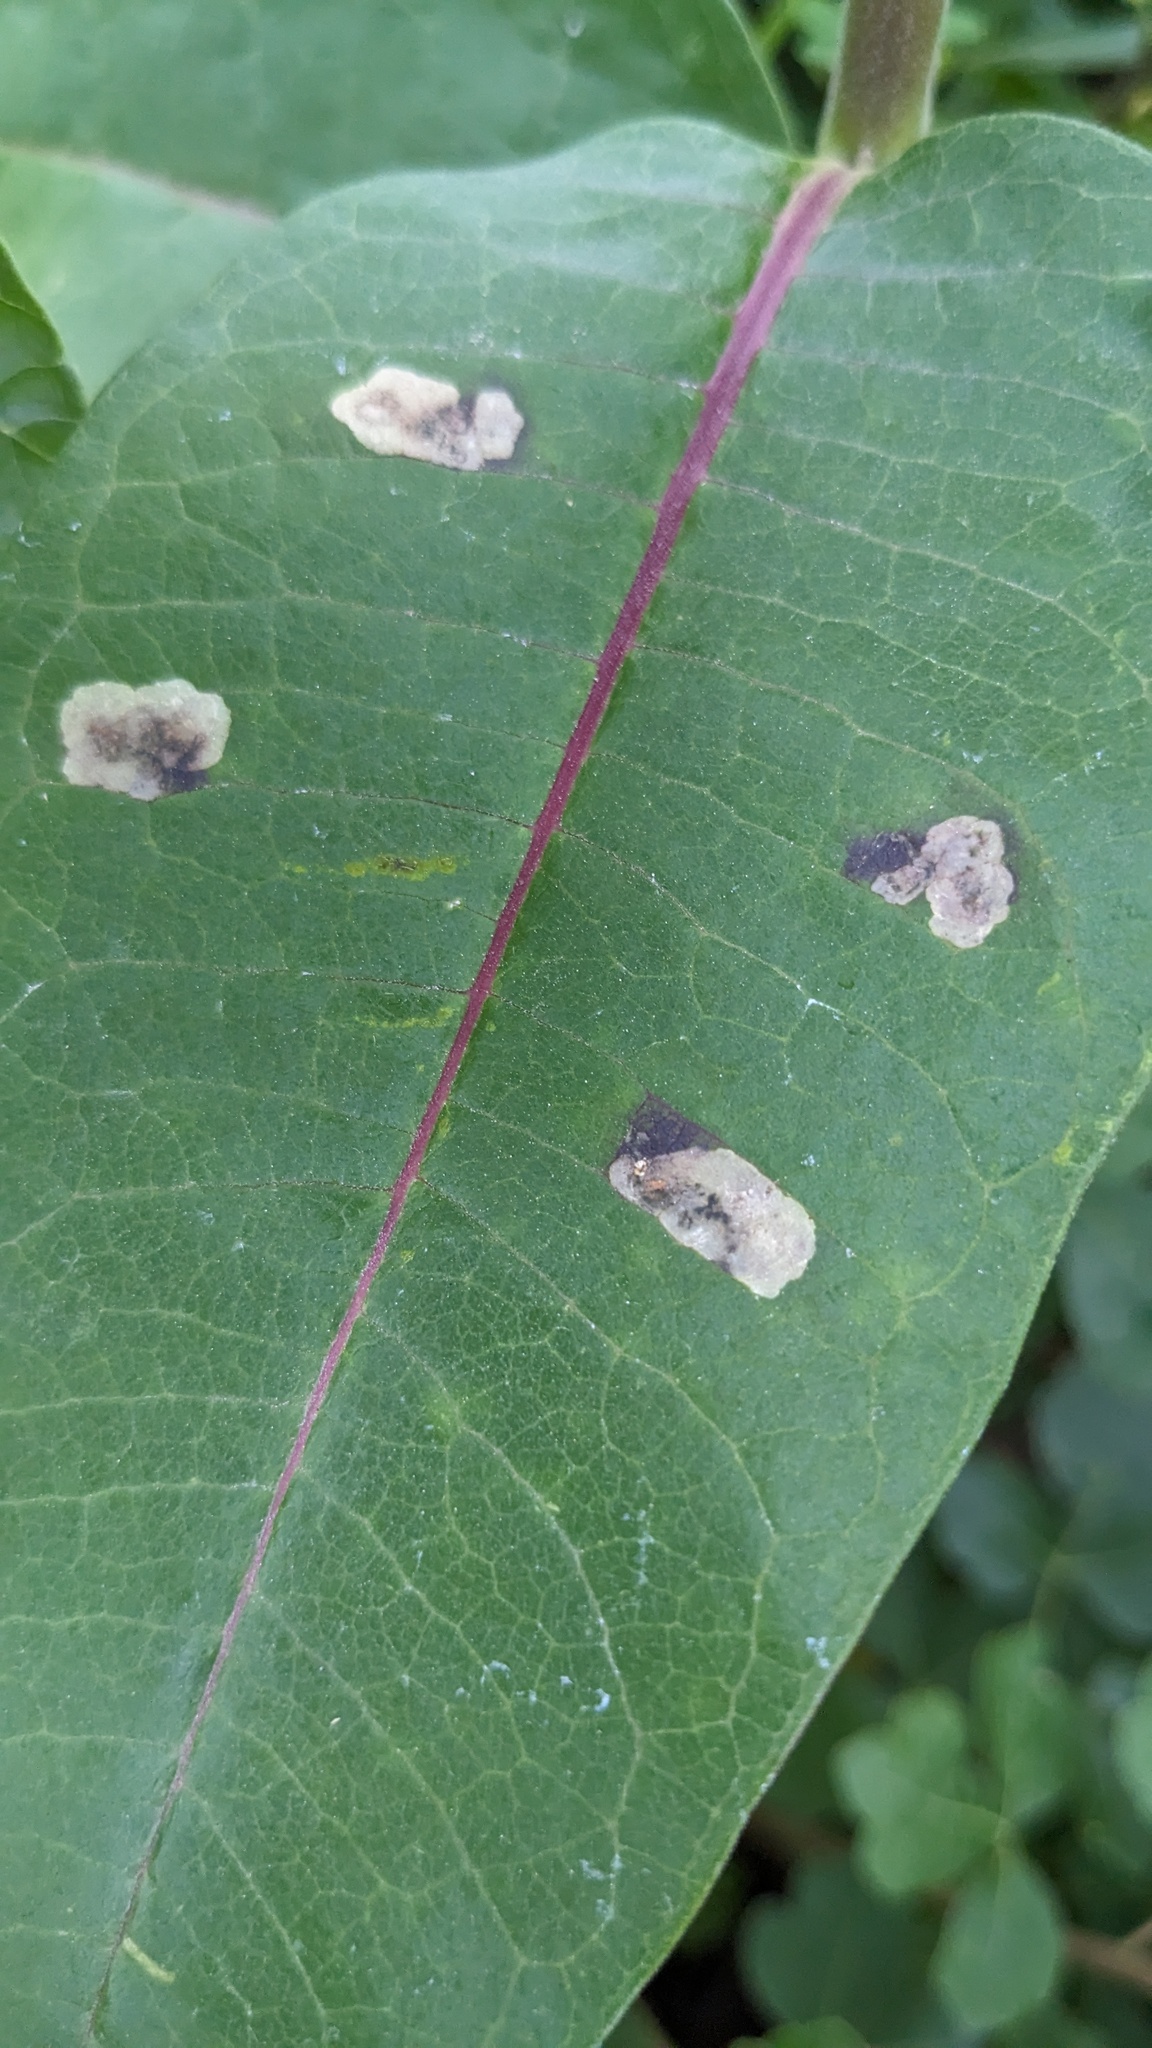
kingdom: Animalia
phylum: Arthropoda
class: Insecta
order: Diptera
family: Agromyzidae
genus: Liriomyza
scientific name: Liriomyza asclepiadis
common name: Milkweed leaf-miner fly
